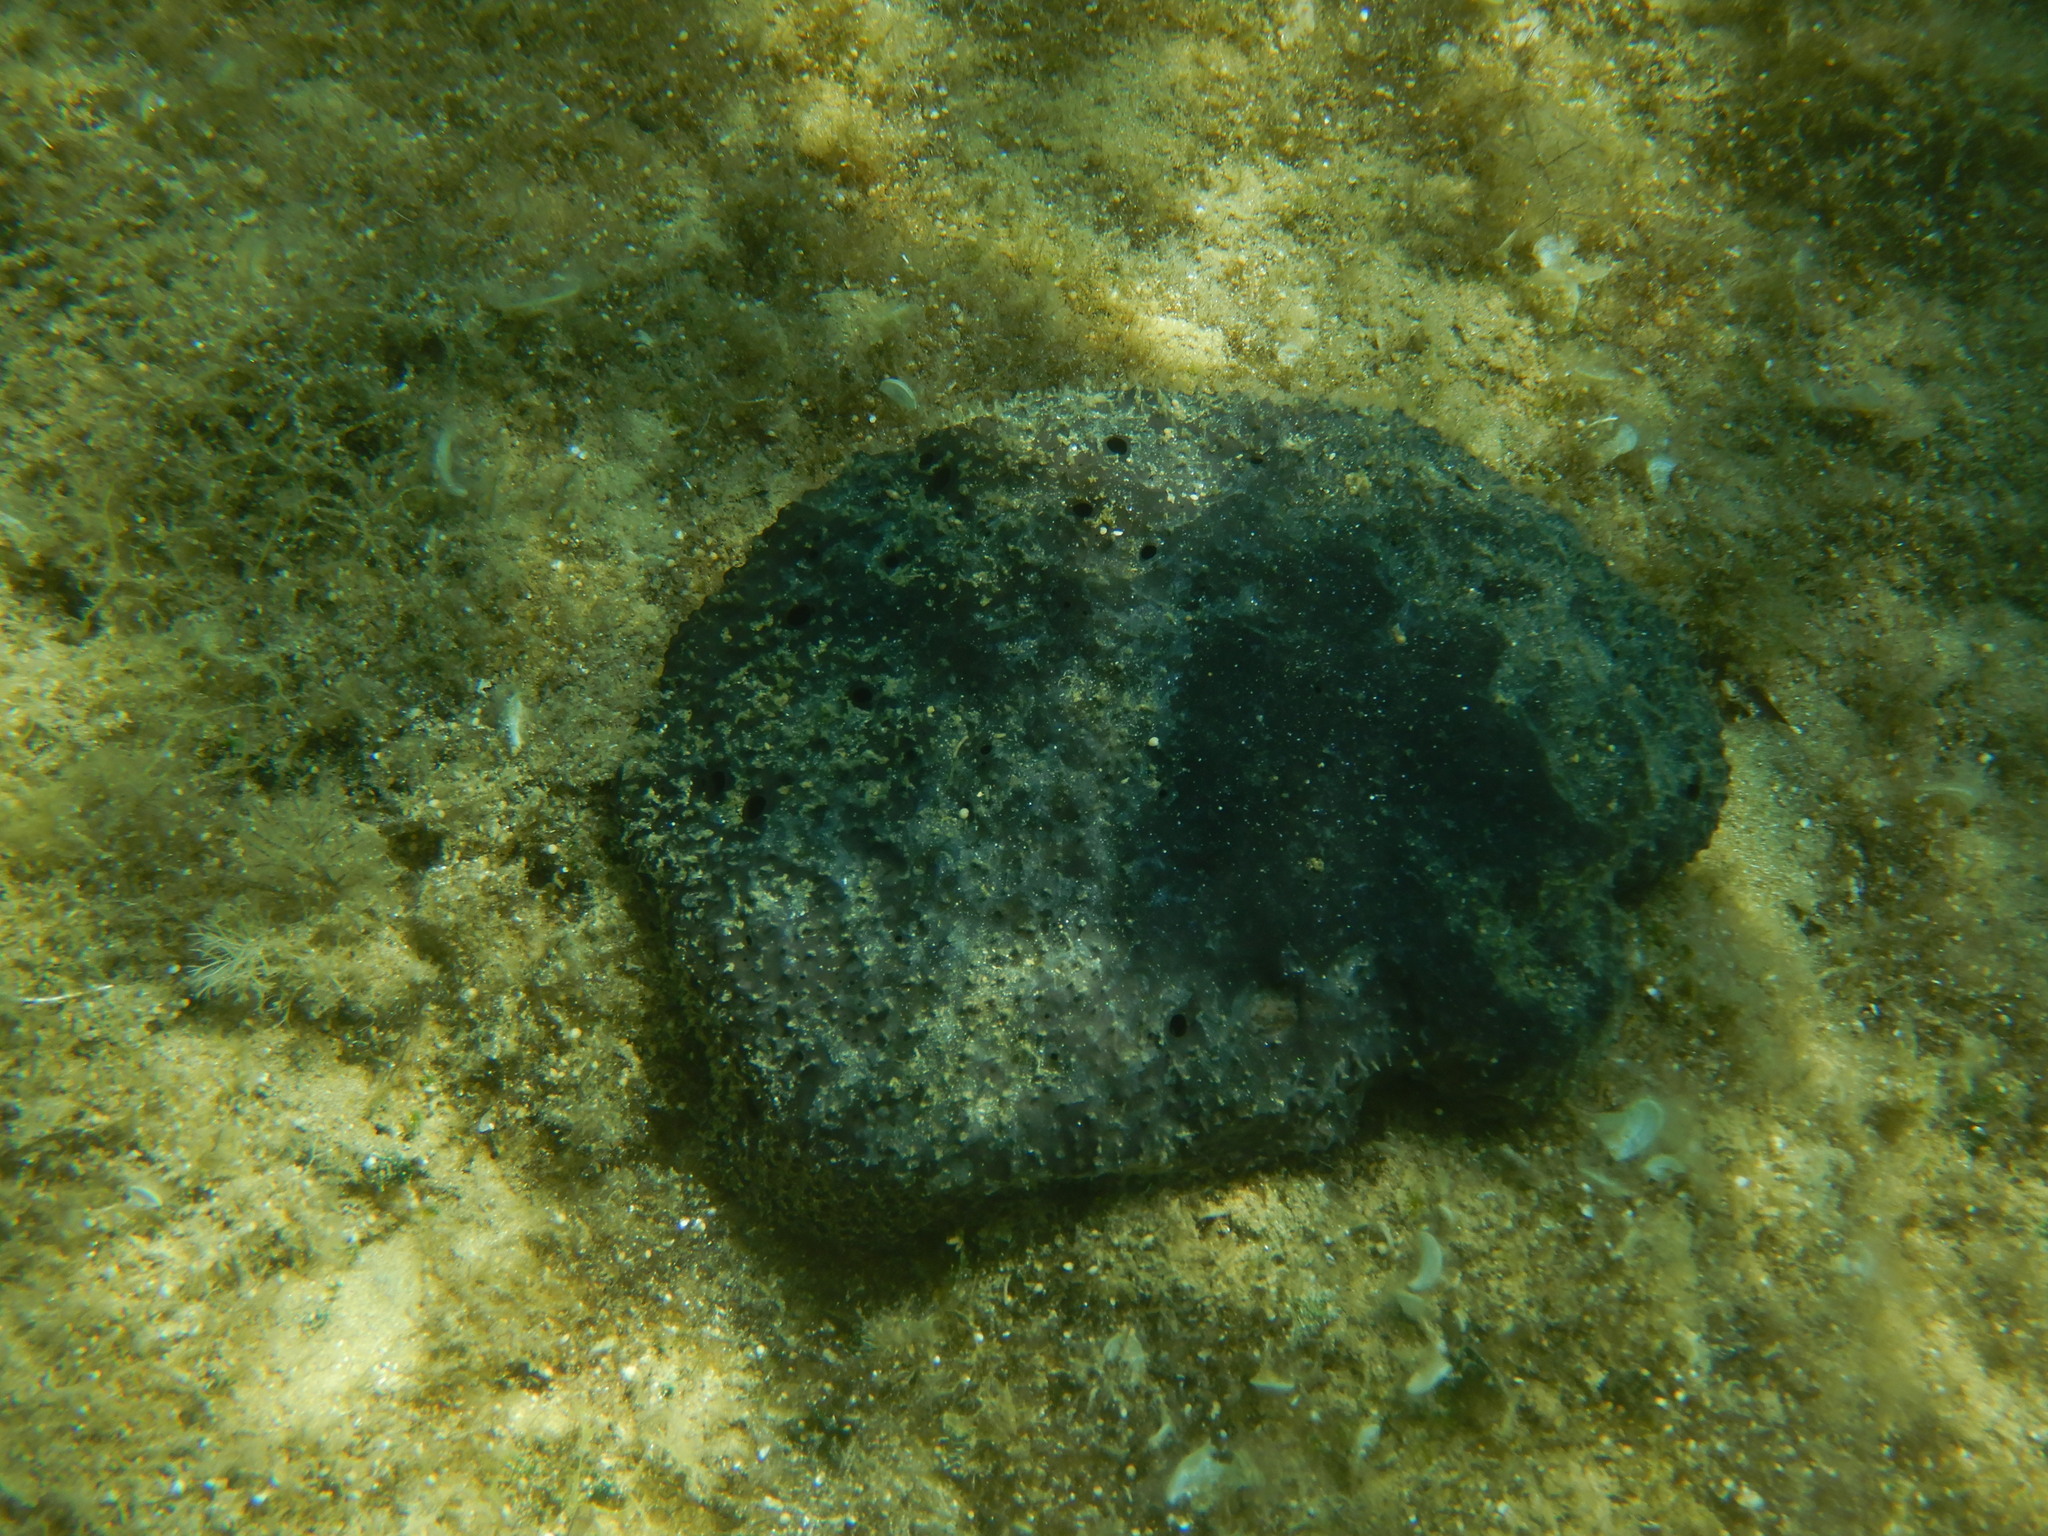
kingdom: Animalia
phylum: Porifera
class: Demospongiae
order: Dictyoceratida
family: Irciniidae
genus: Sarcotragus
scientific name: Sarcotragus spinosulus
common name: Black leather sponge
